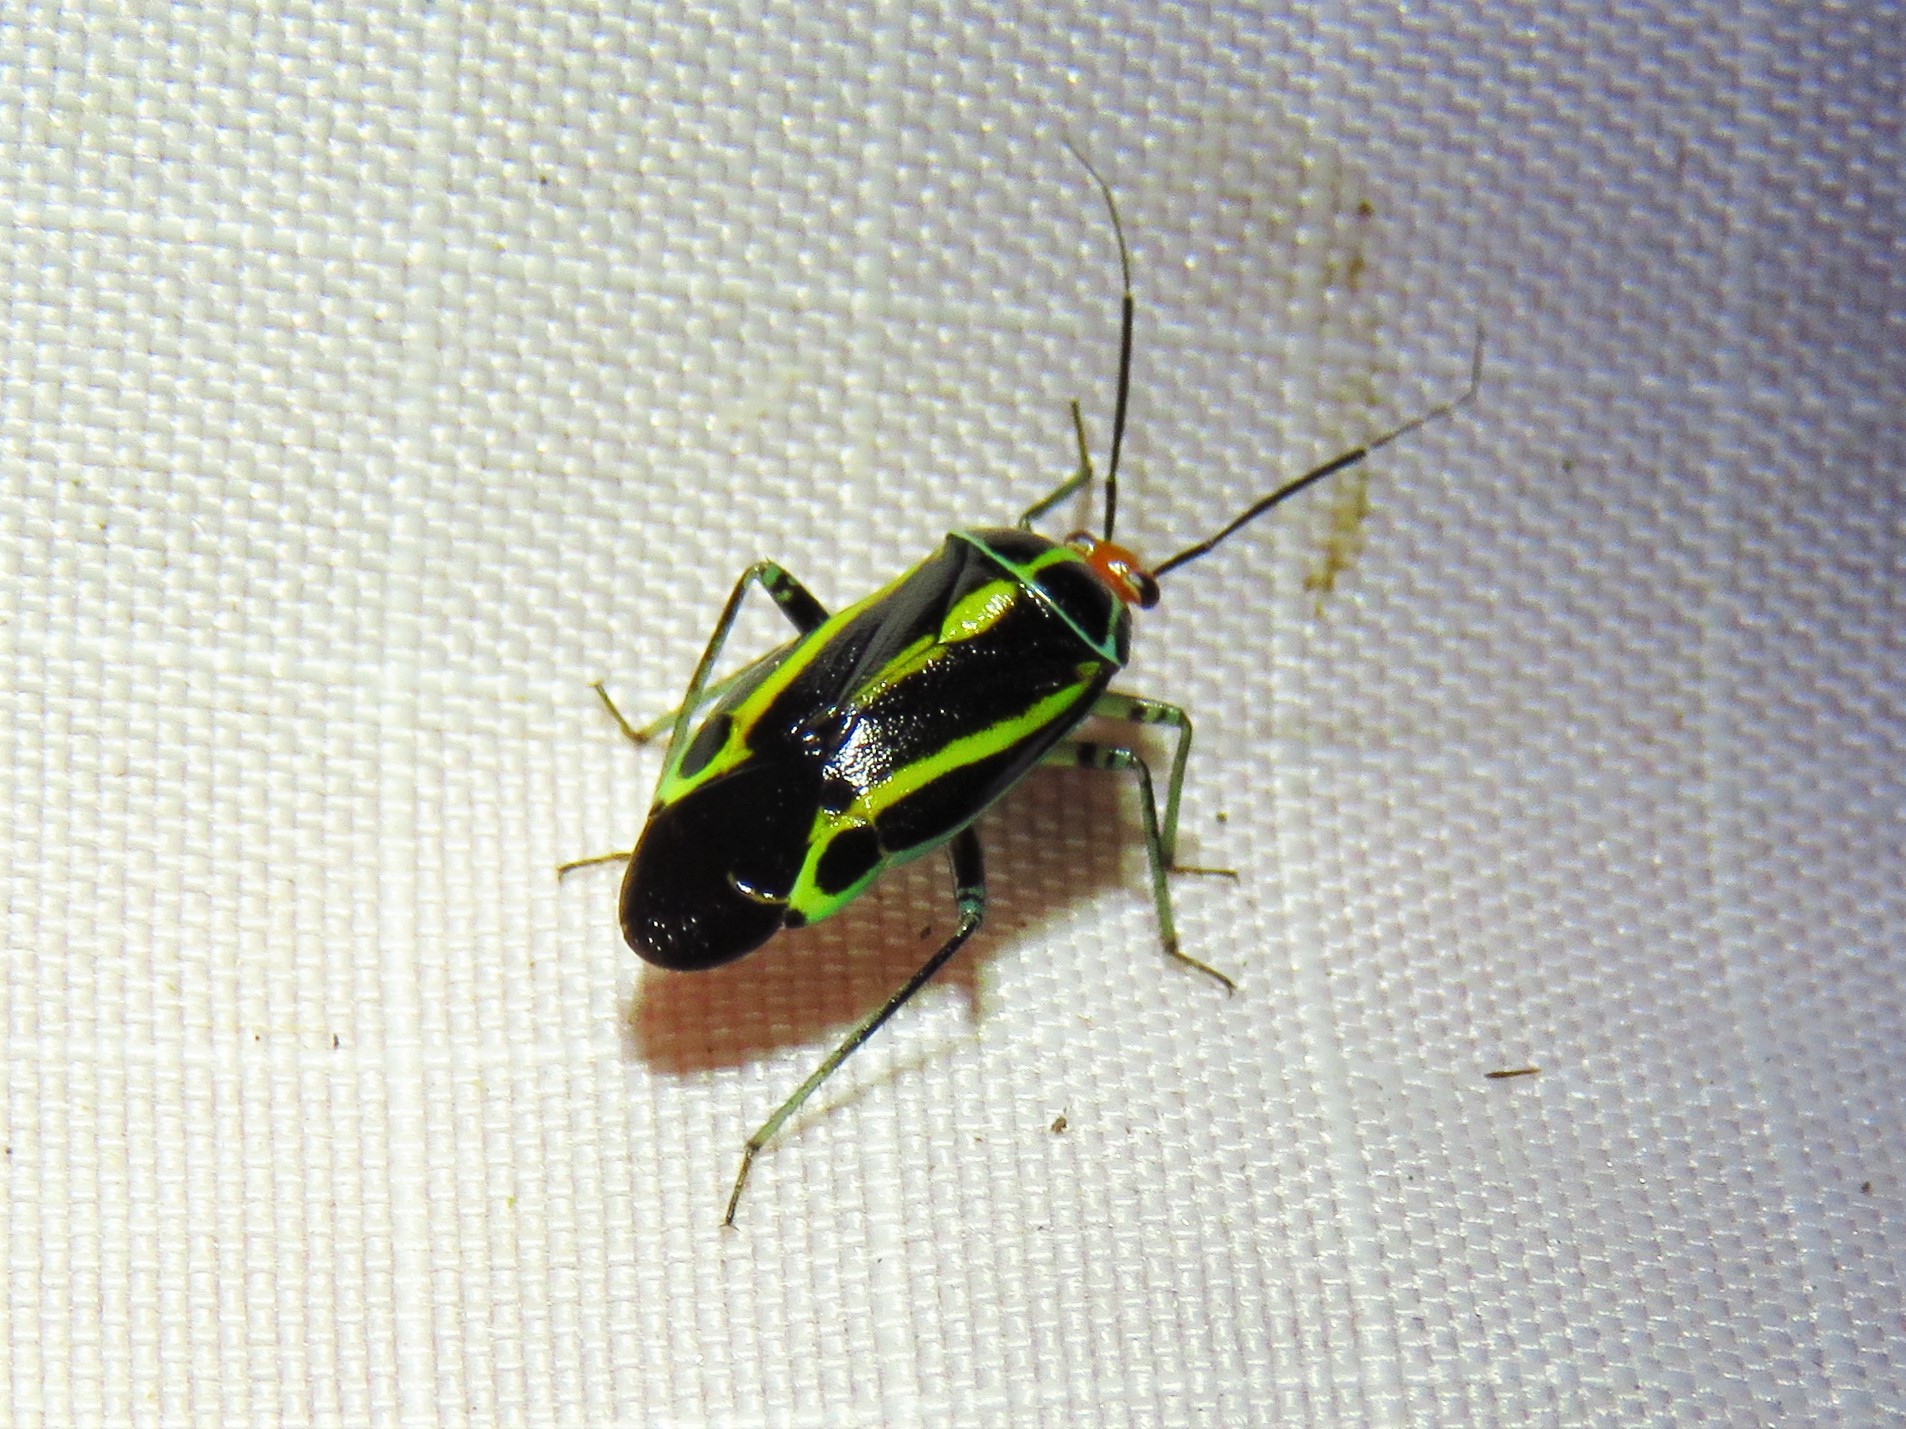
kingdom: Animalia
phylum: Arthropoda
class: Insecta
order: Hemiptera
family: Miridae
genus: Poecilocapsus
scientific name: Poecilocapsus lineatus
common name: Four-lined plant bug
